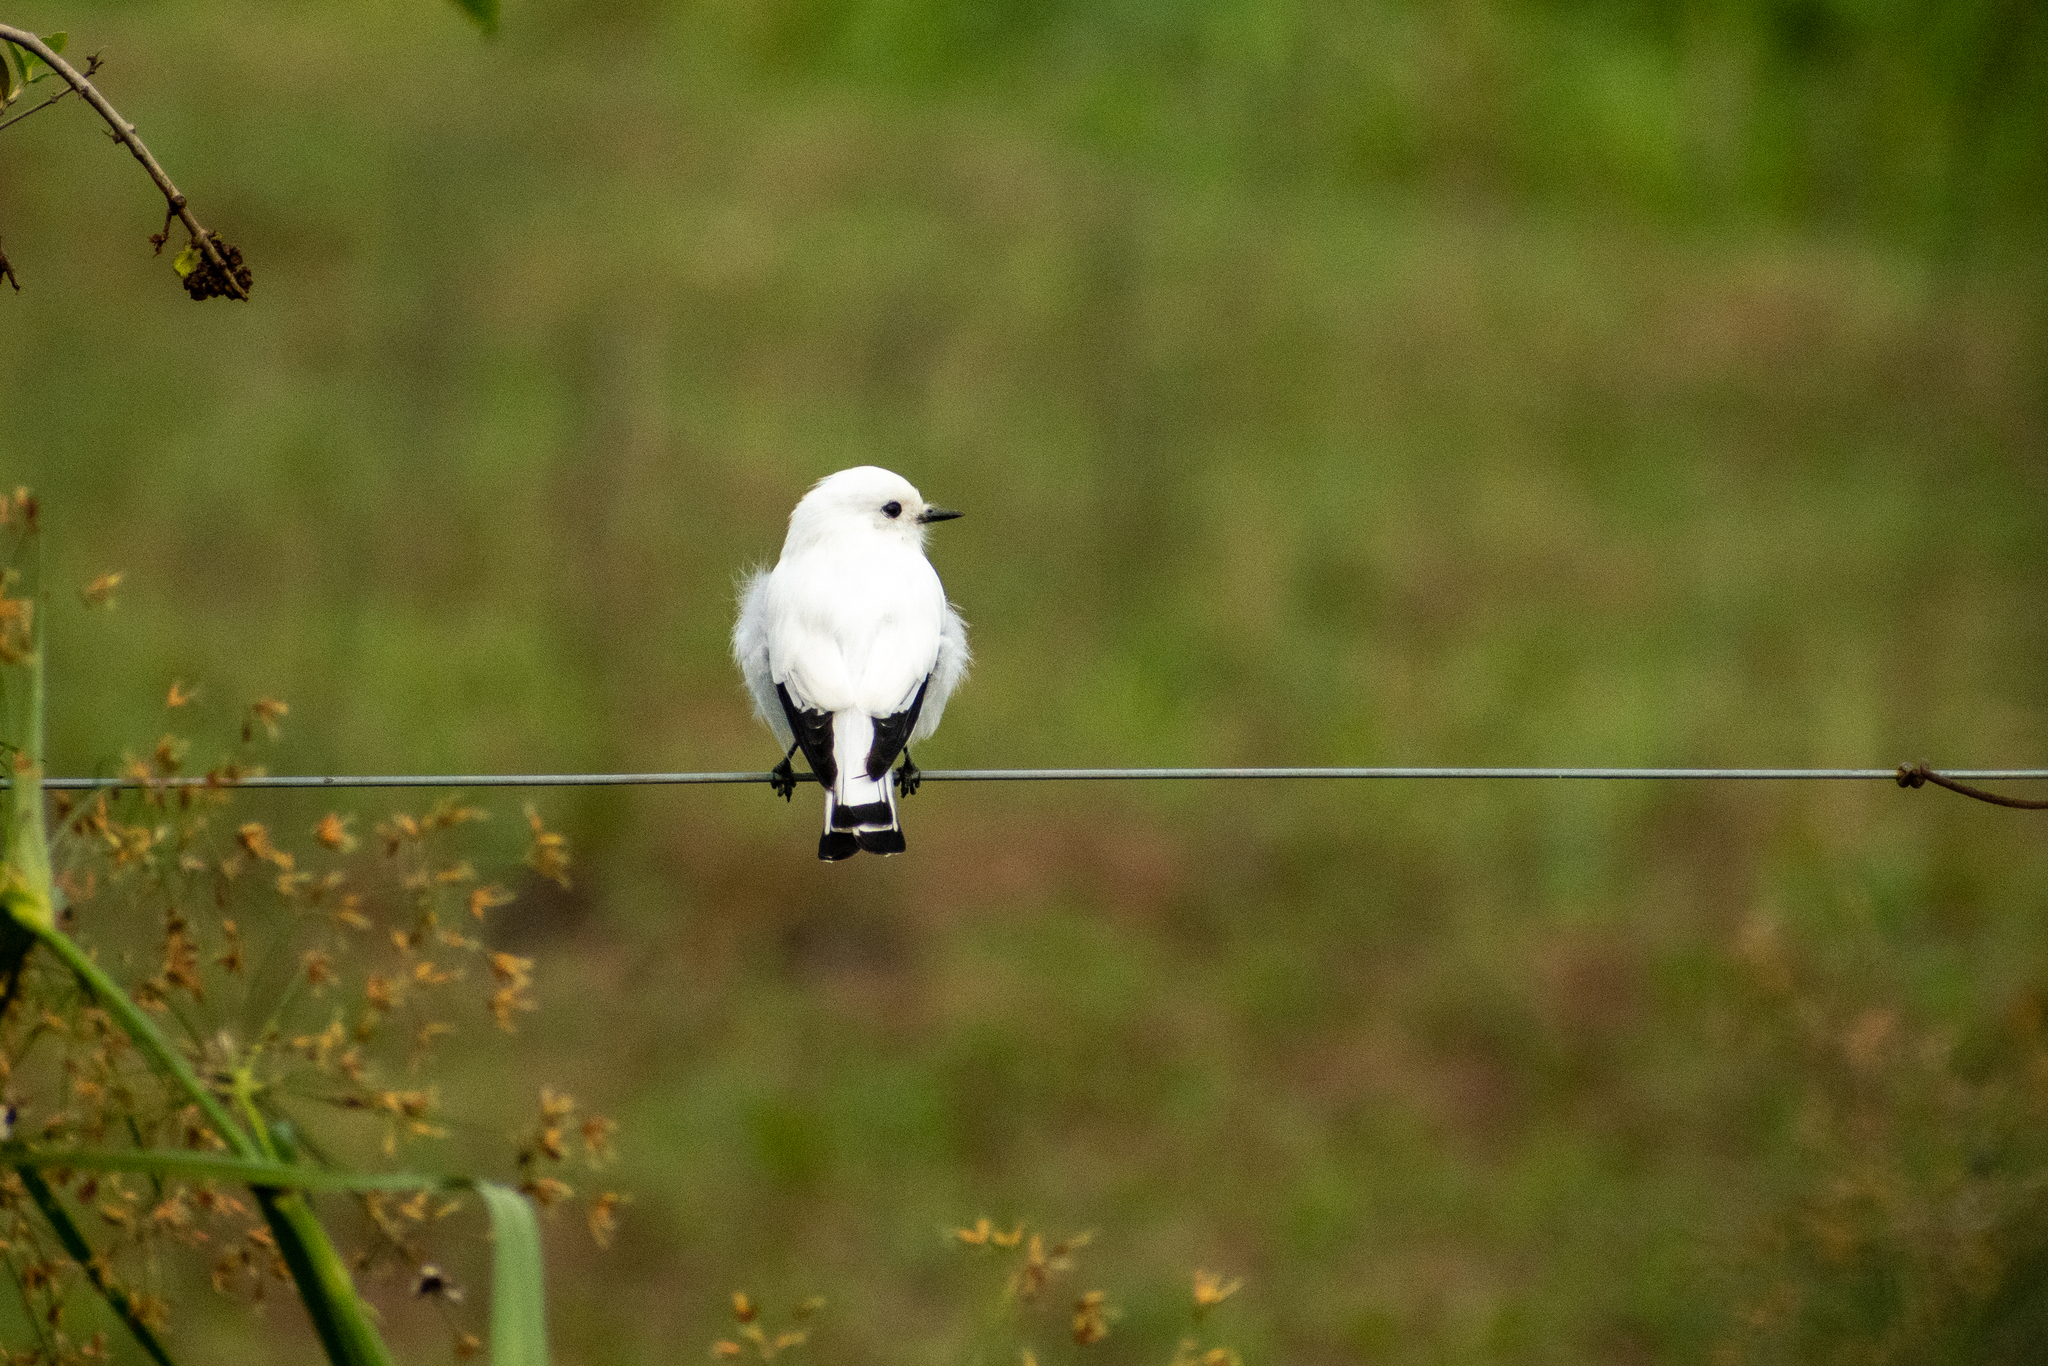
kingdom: Animalia
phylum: Chordata
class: Aves
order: Passeriformes
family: Tyrannidae
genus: Xolmis
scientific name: Xolmis irupero
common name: White monjita
